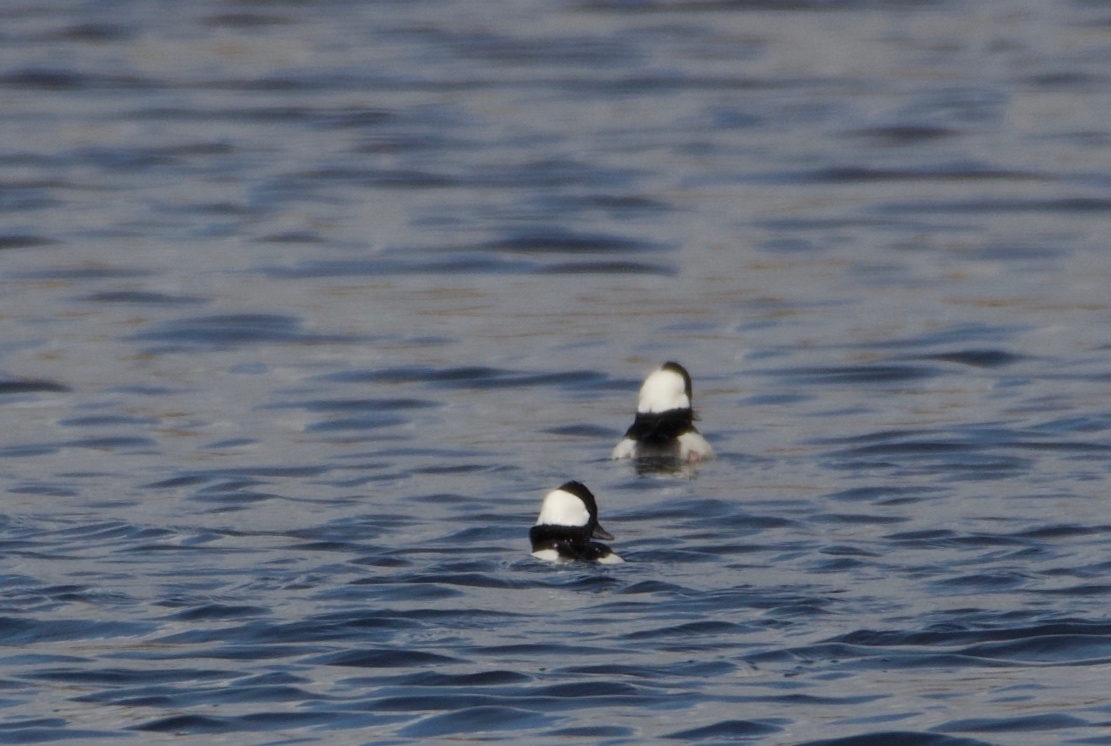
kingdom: Animalia
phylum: Chordata
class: Aves
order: Anseriformes
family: Anatidae
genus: Bucephala
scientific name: Bucephala albeola
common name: Bufflehead
